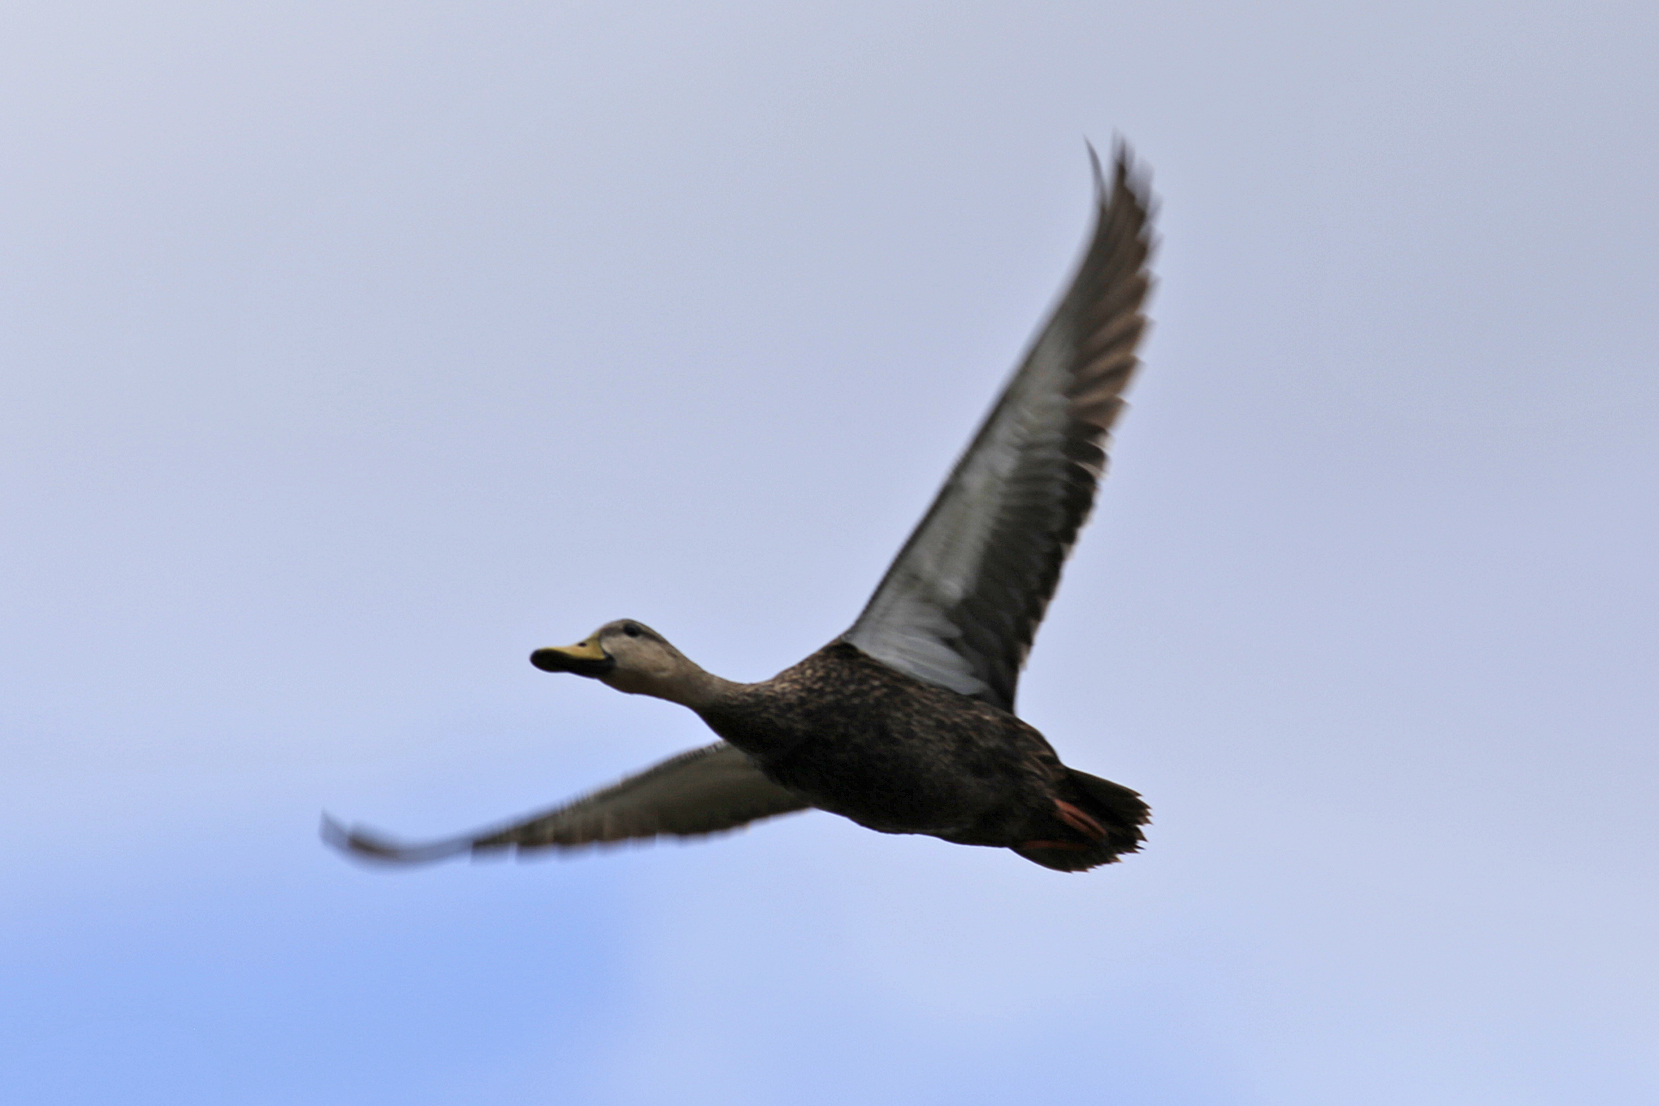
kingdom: Animalia
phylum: Chordata
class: Aves
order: Anseriformes
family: Anatidae
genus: Anas
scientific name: Anas fulvigula
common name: Mottled duck
